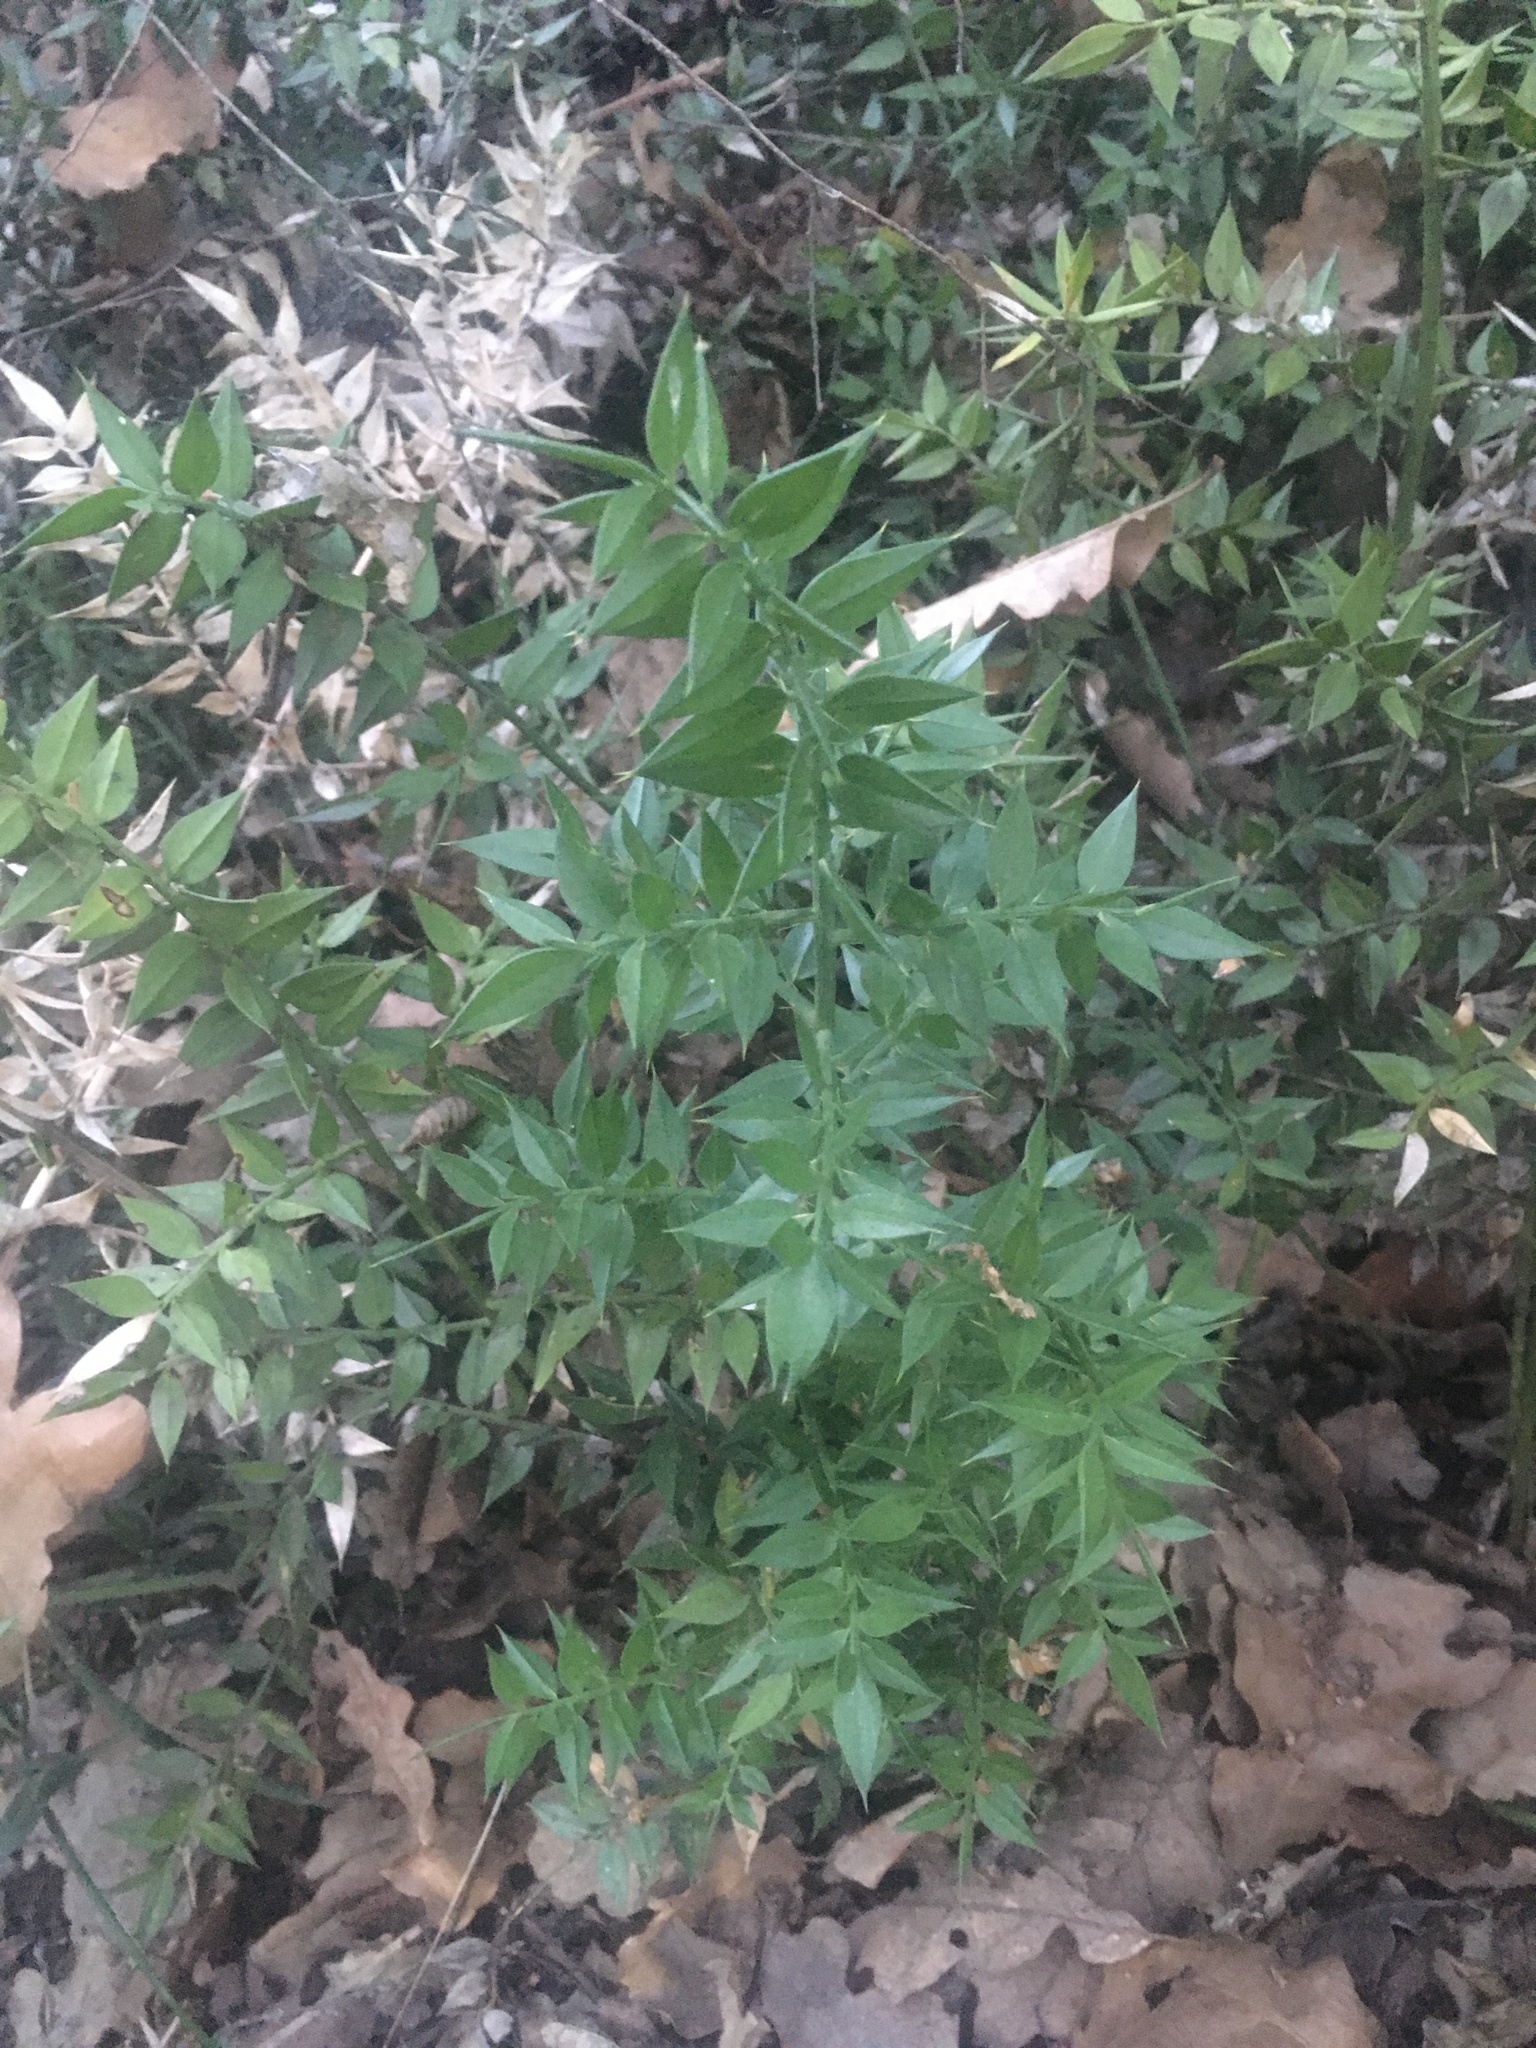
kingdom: Plantae
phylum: Tracheophyta
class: Liliopsida
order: Asparagales
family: Asparagaceae
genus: Ruscus
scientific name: Ruscus aculeatus
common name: Butcher's-broom
